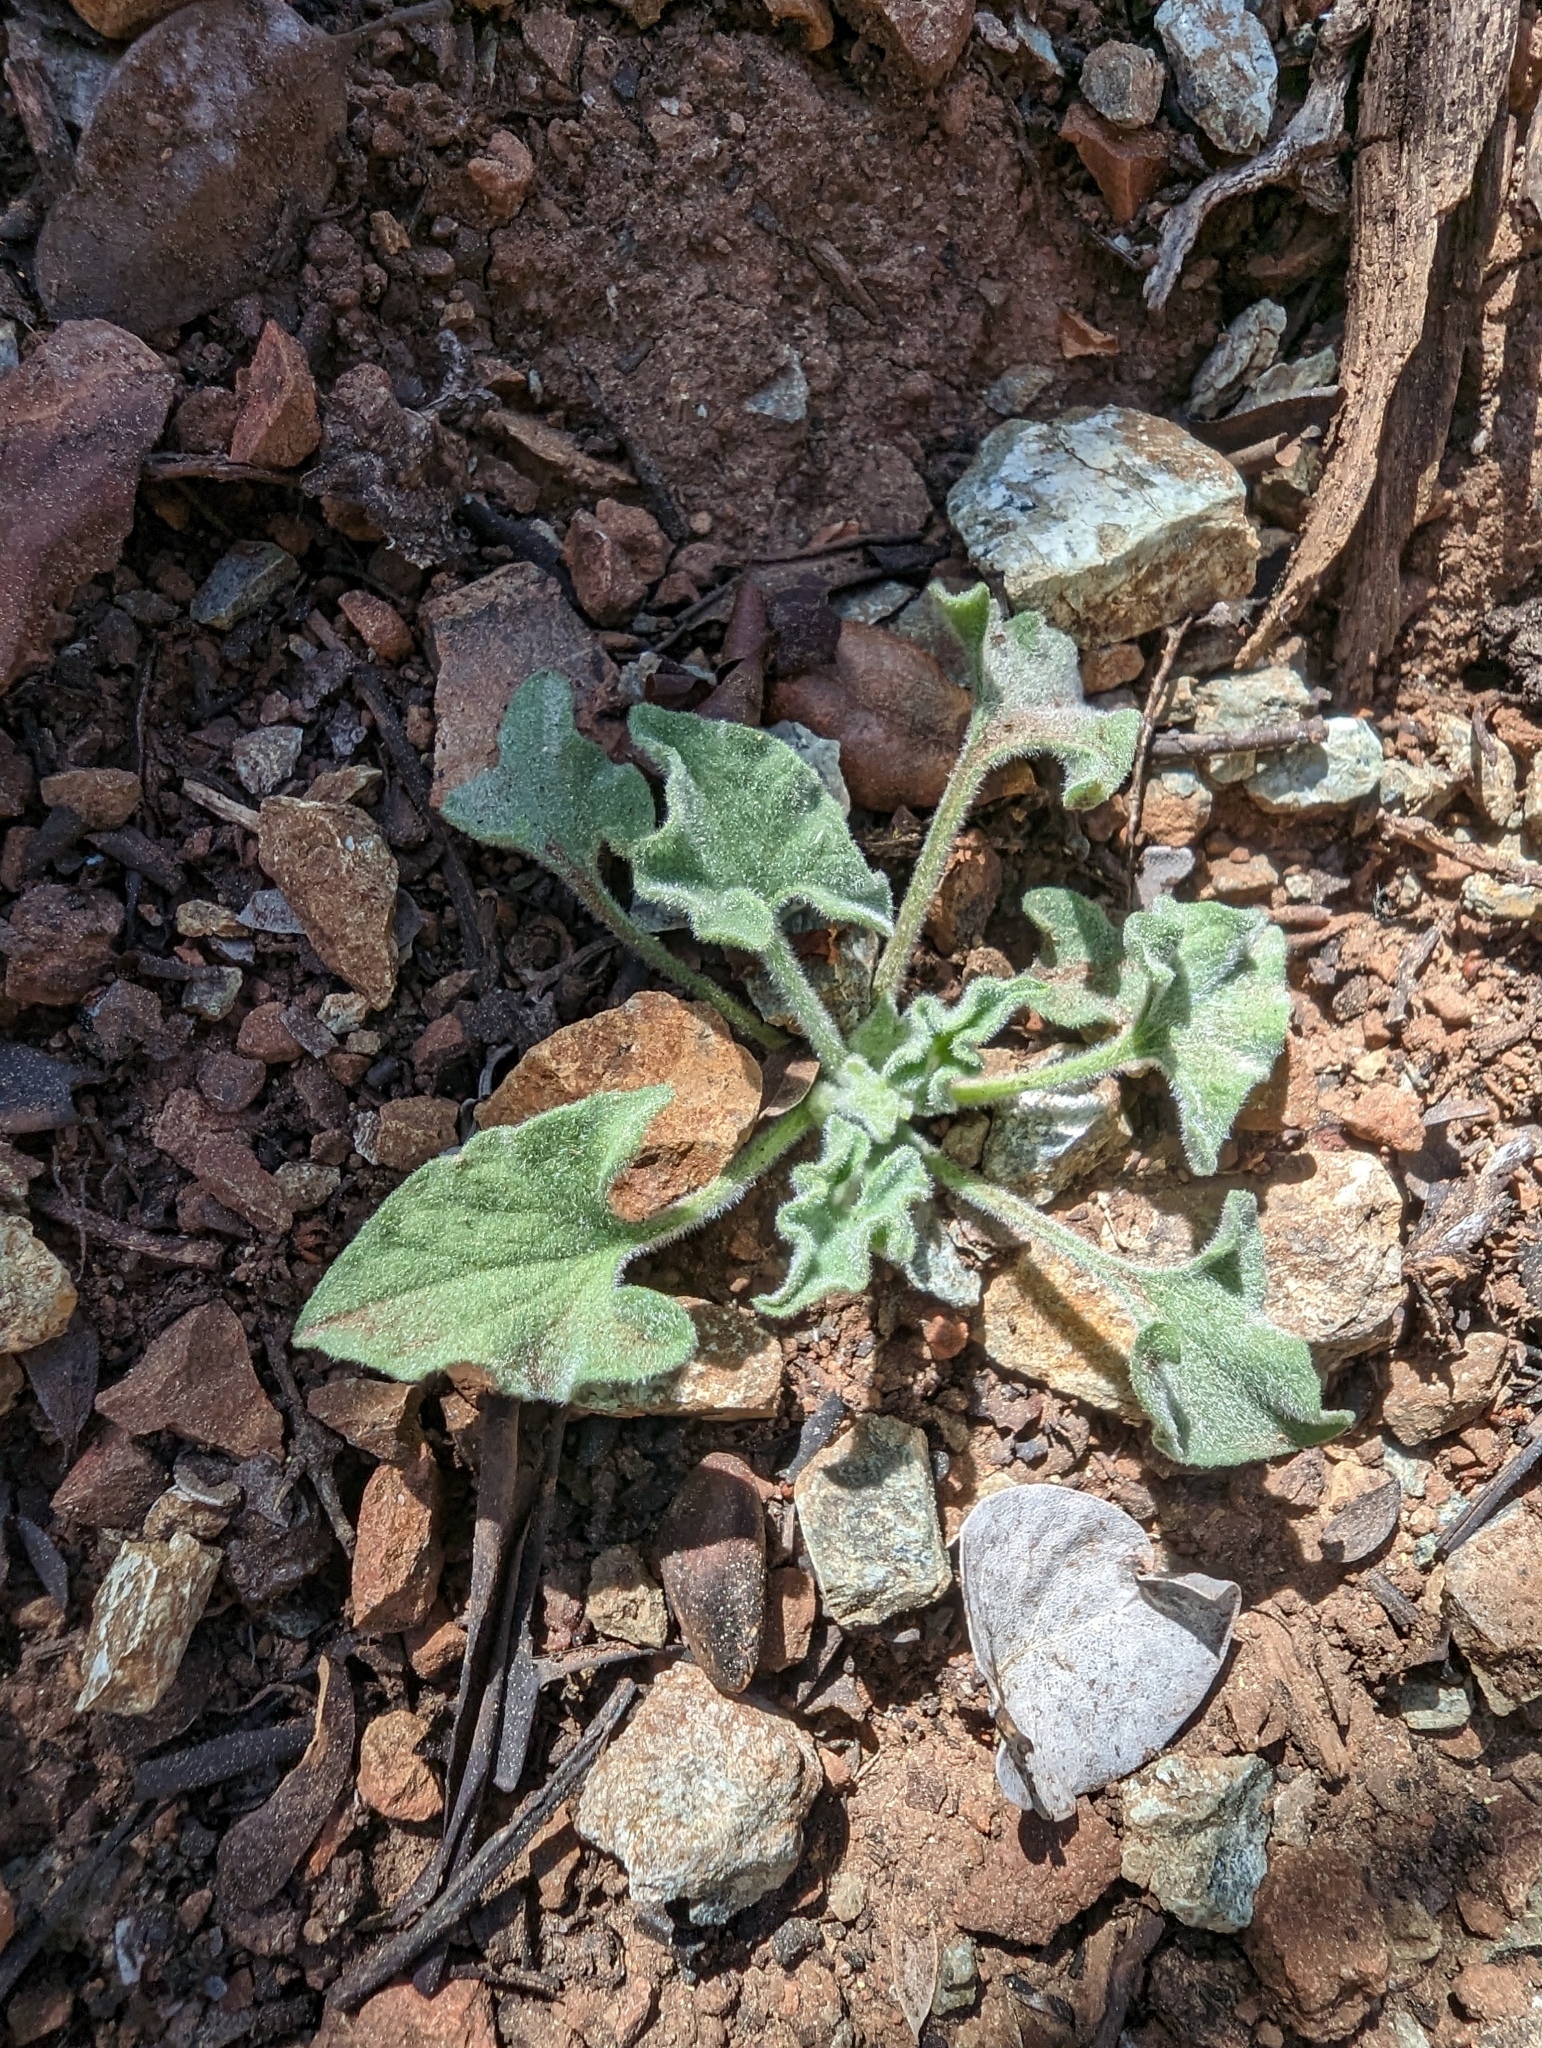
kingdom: Plantae
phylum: Tracheophyta
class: Magnoliopsida
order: Solanales
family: Convolvulaceae
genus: Calystegia
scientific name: Calystegia collina
